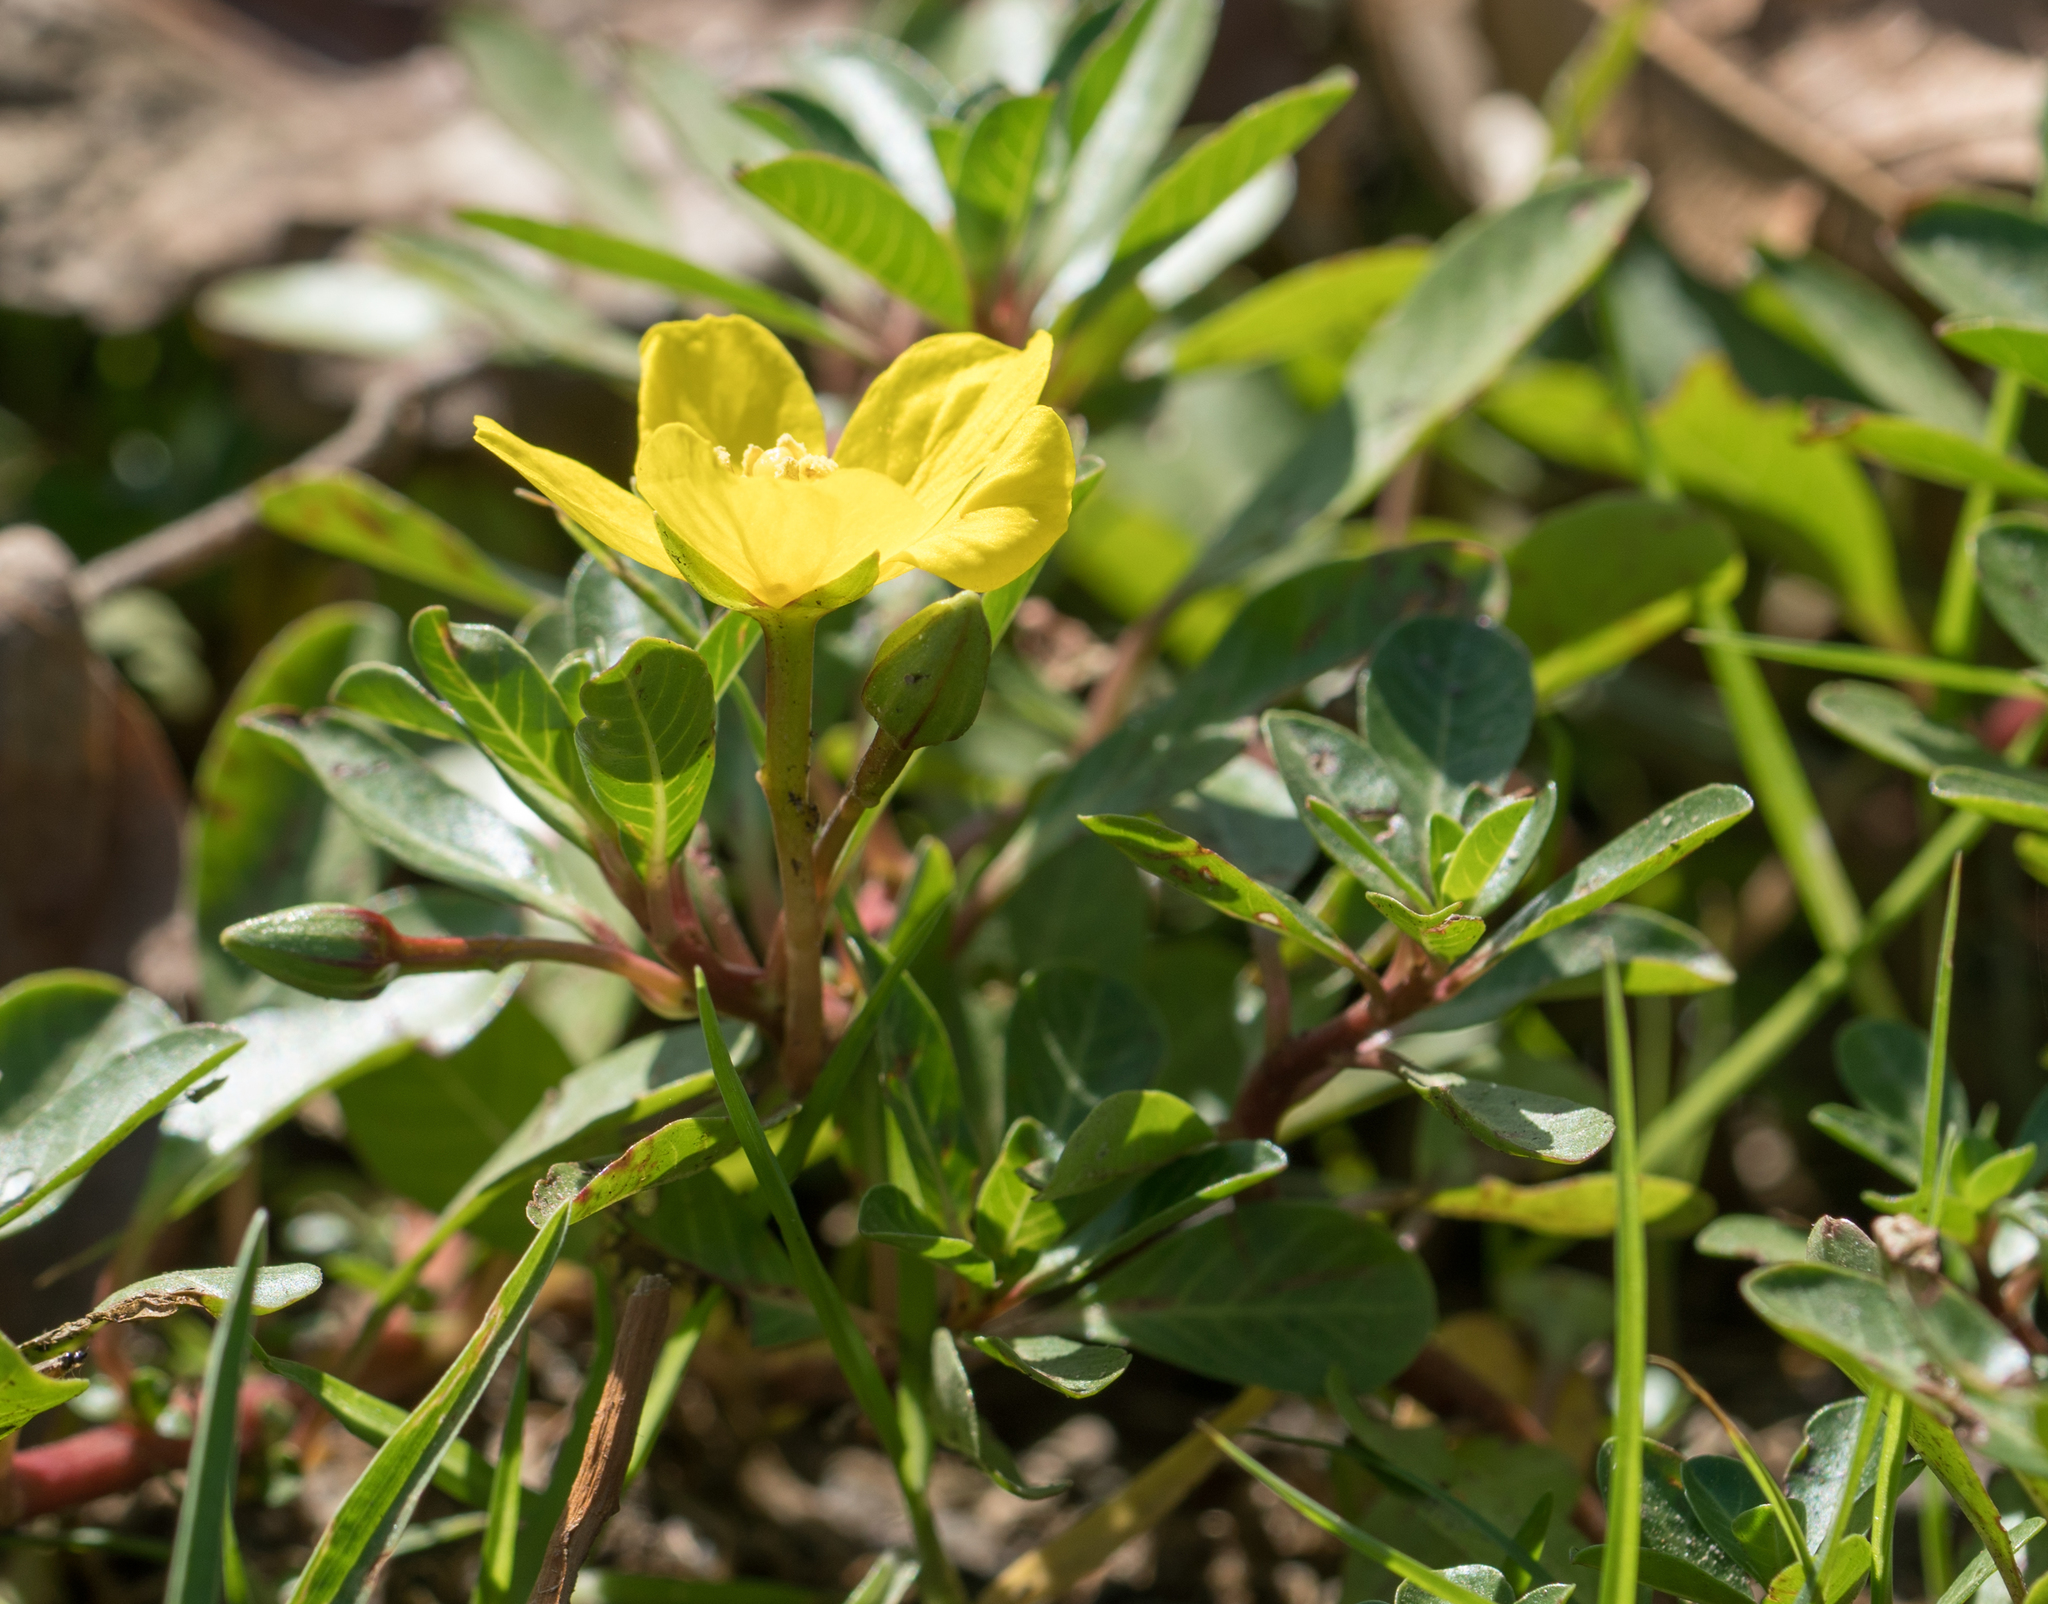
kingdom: Plantae
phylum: Tracheophyta
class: Magnoliopsida
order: Myrtales
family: Onagraceae
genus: Ludwigia
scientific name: Ludwigia peploides
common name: Floating primrose-willow
